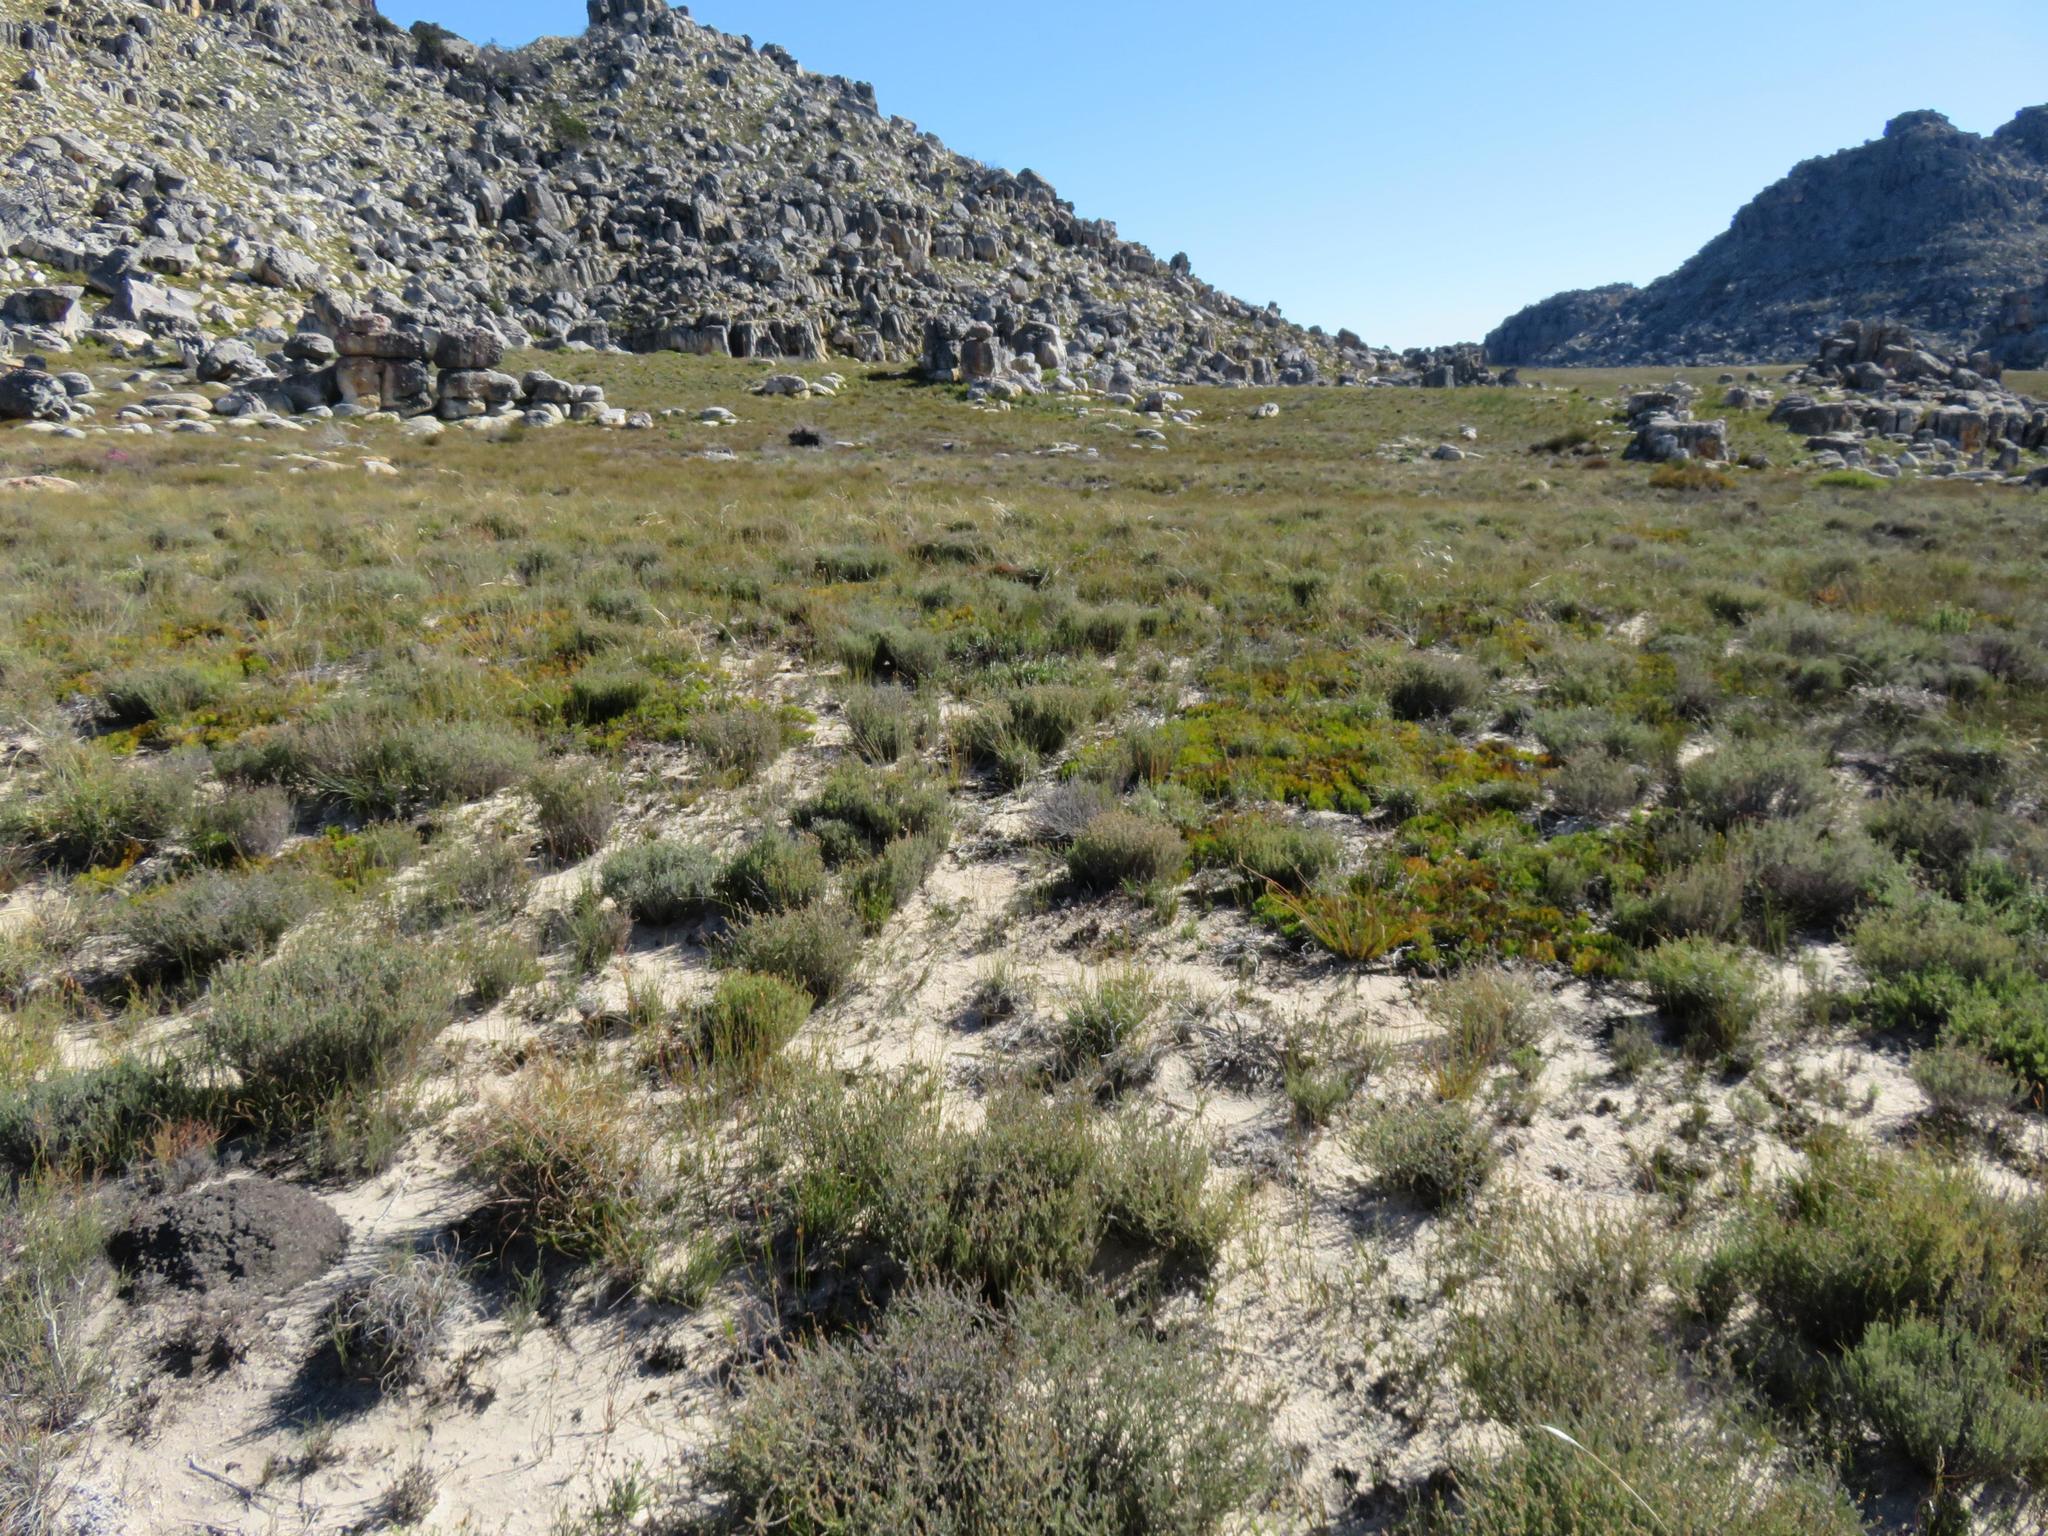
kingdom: Plantae
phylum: Tracheophyta
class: Magnoliopsida
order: Proteales
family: Proteaceae
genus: Serruria
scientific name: Serruria cygnea
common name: Swan spiderhead
